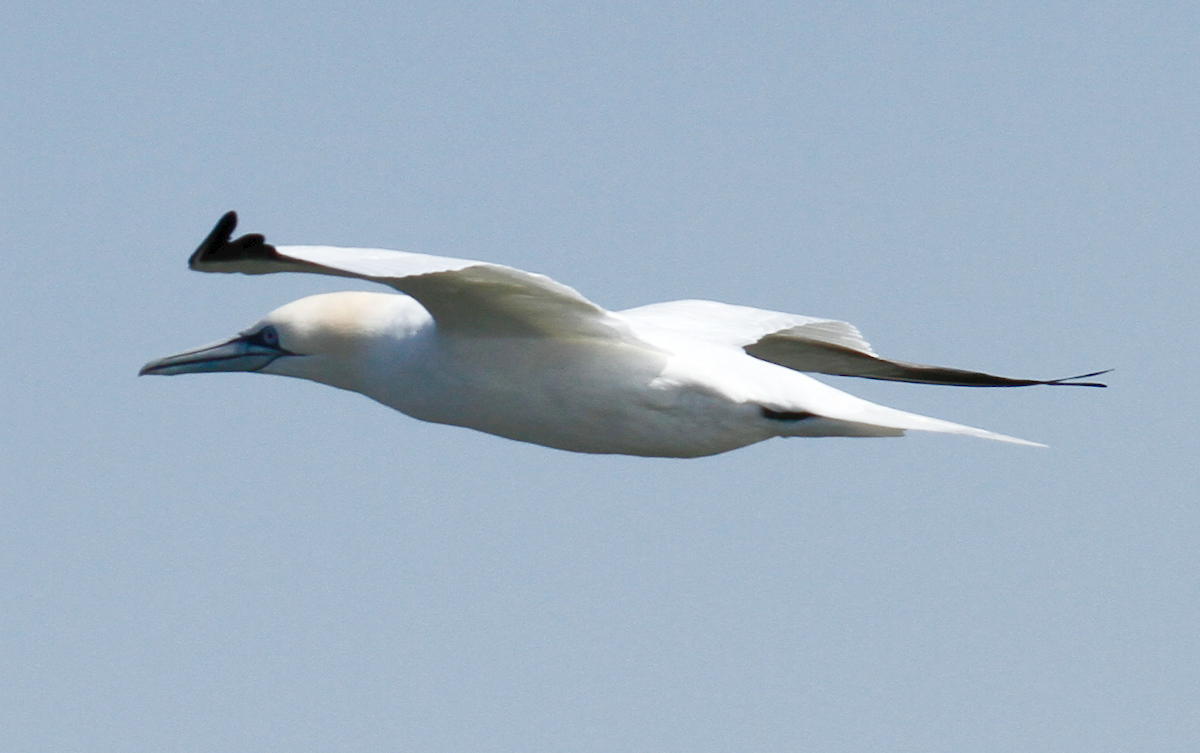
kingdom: Animalia
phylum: Chordata
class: Aves
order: Suliformes
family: Sulidae
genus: Morus
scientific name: Morus bassanus
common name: Northern gannet
